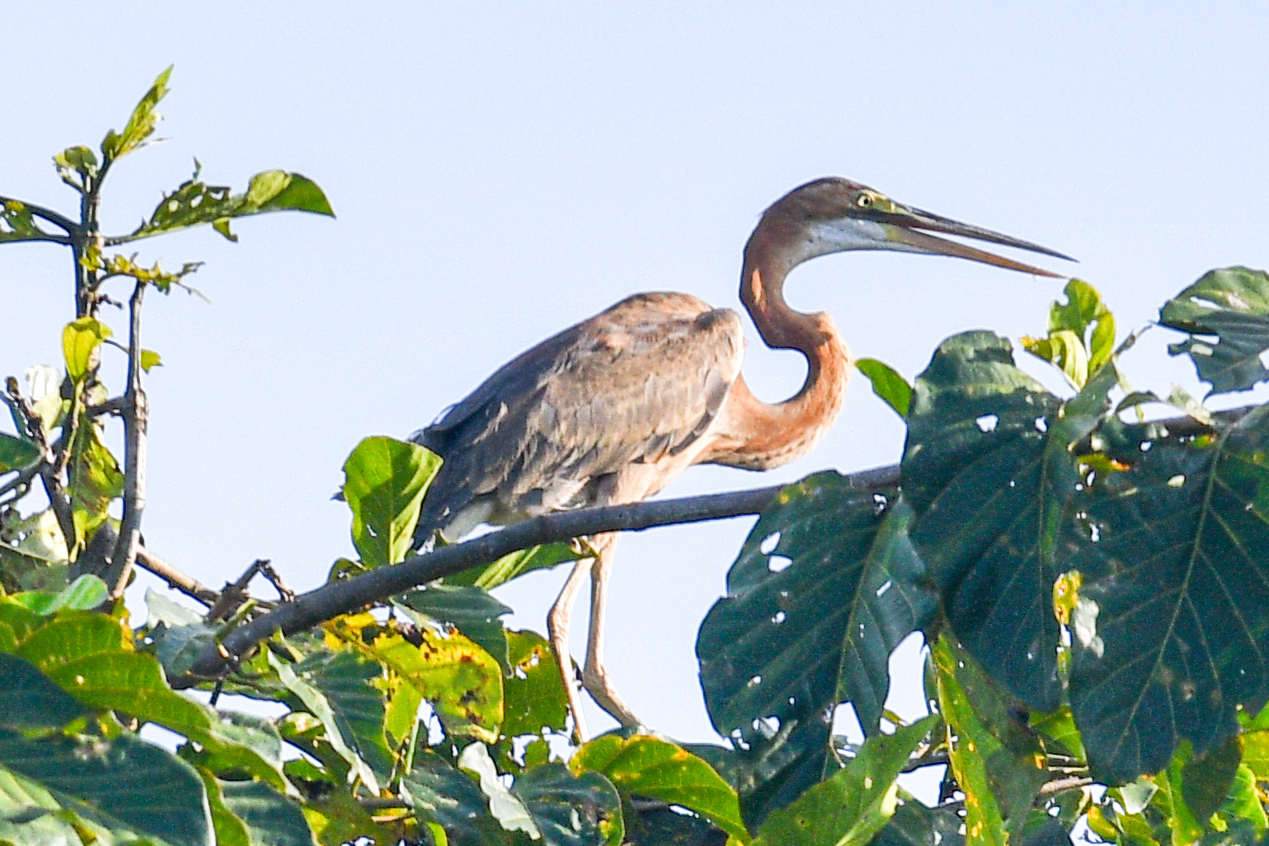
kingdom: Animalia
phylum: Chordata
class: Aves
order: Pelecaniformes
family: Ardeidae
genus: Ardea
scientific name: Ardea purpurea
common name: Purple heron
